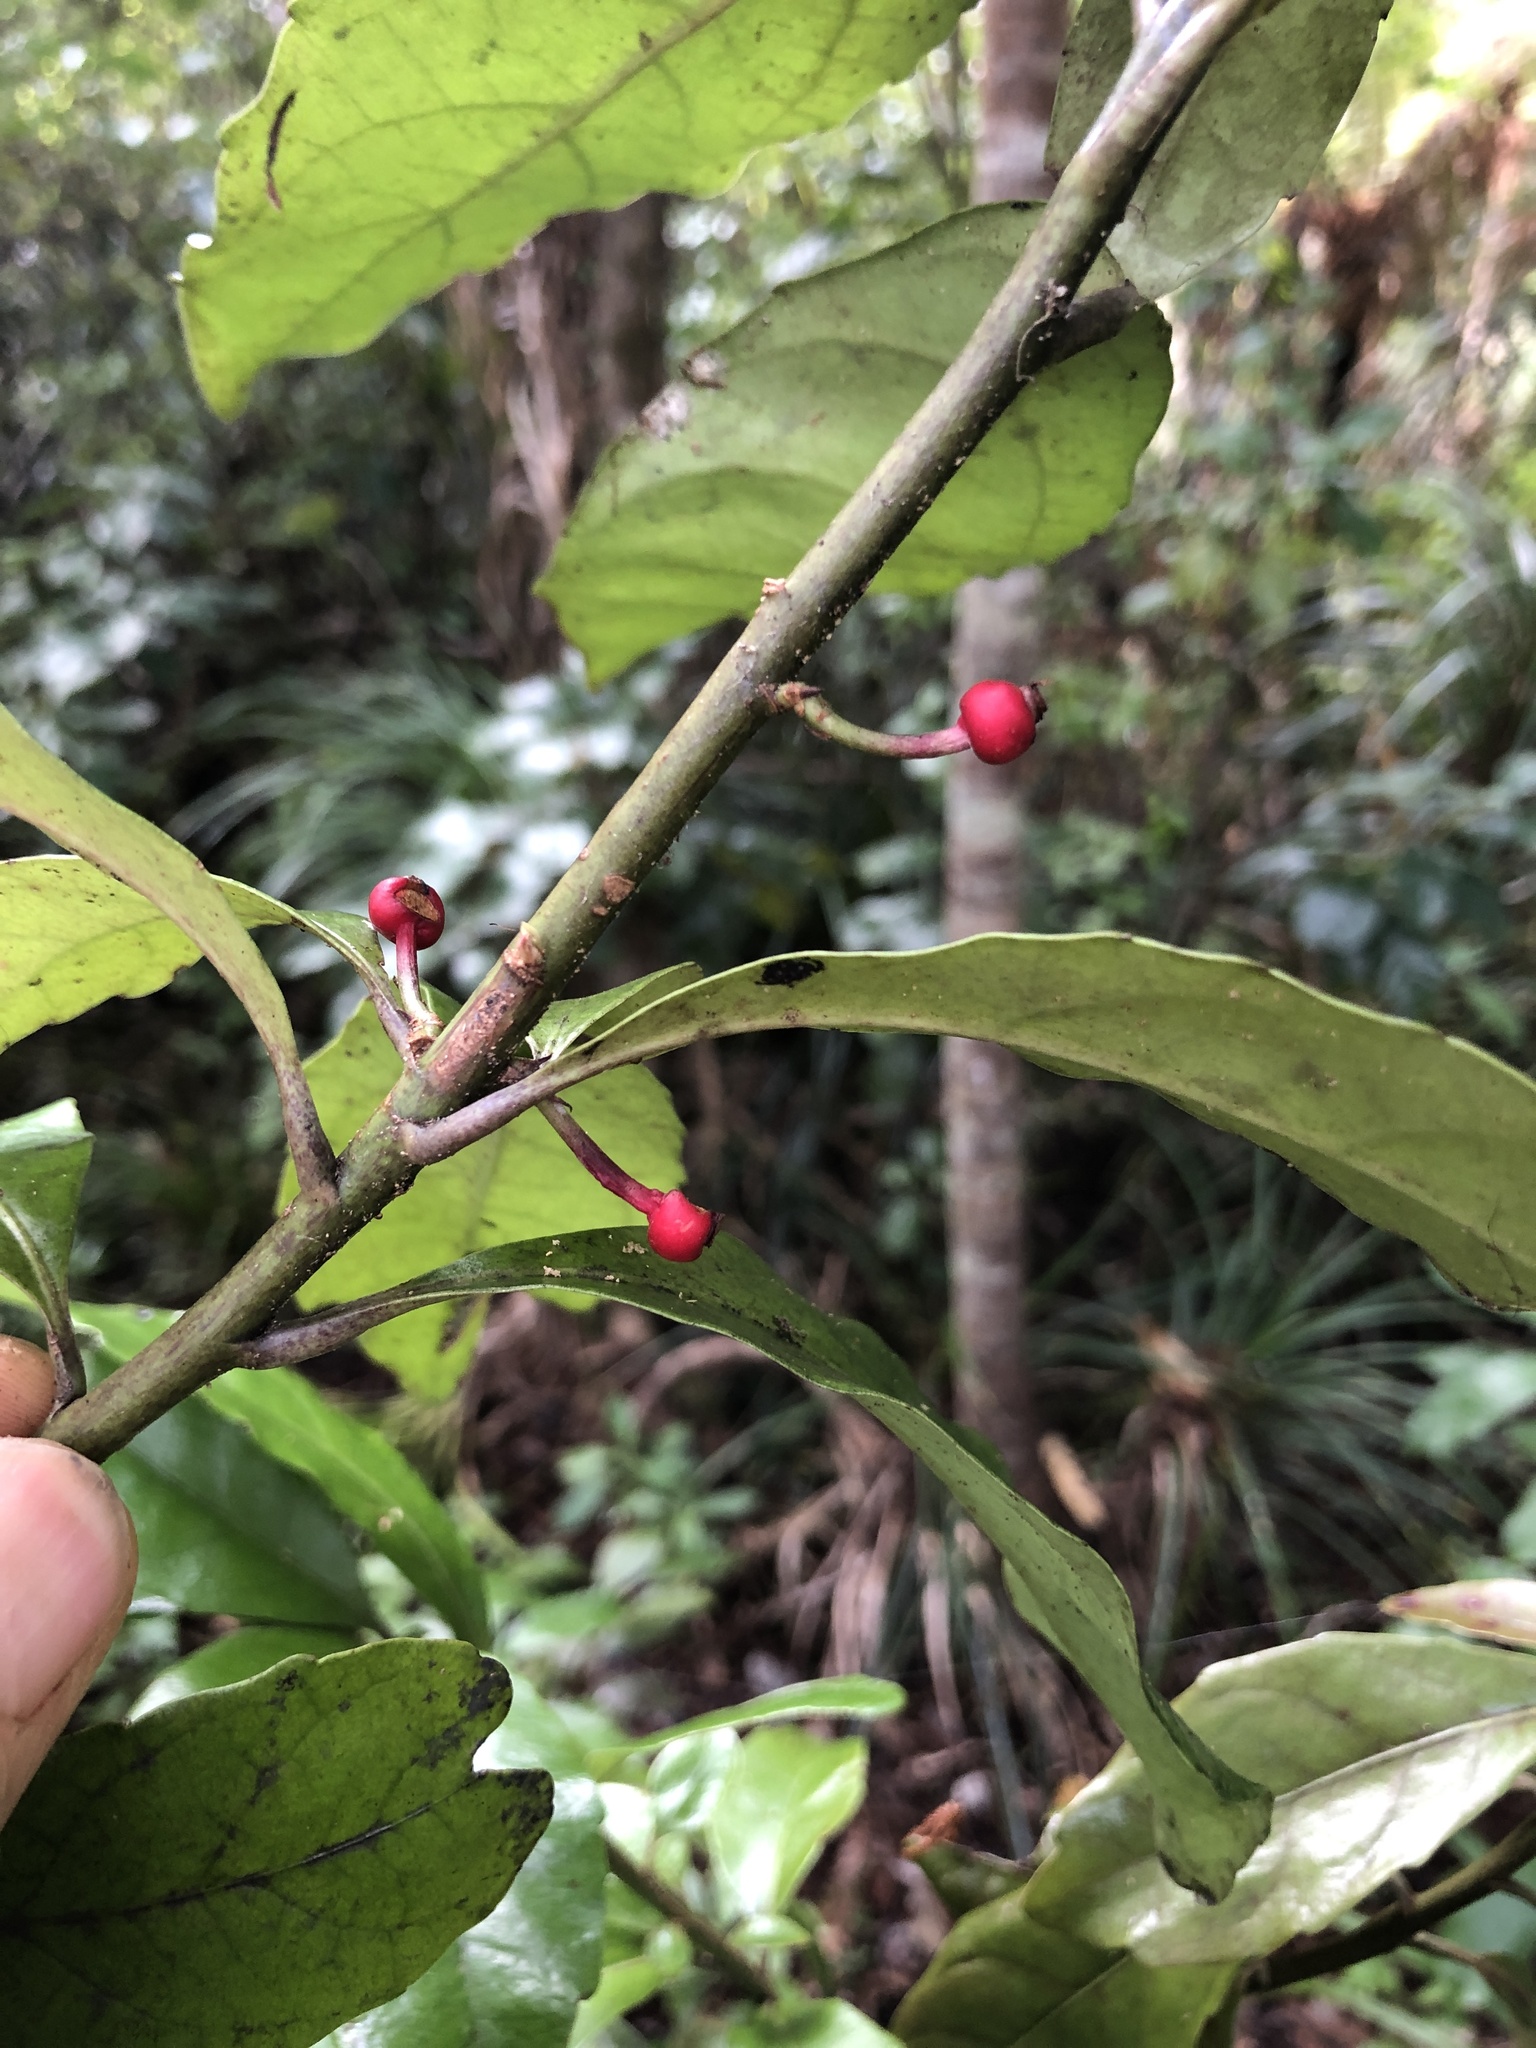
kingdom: Plantae
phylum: Tracheophyta
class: Magnoliopsida
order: Asterales
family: Alseuosmiaceae
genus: Alseuosmia
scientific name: Alseuosmia macrophylla
